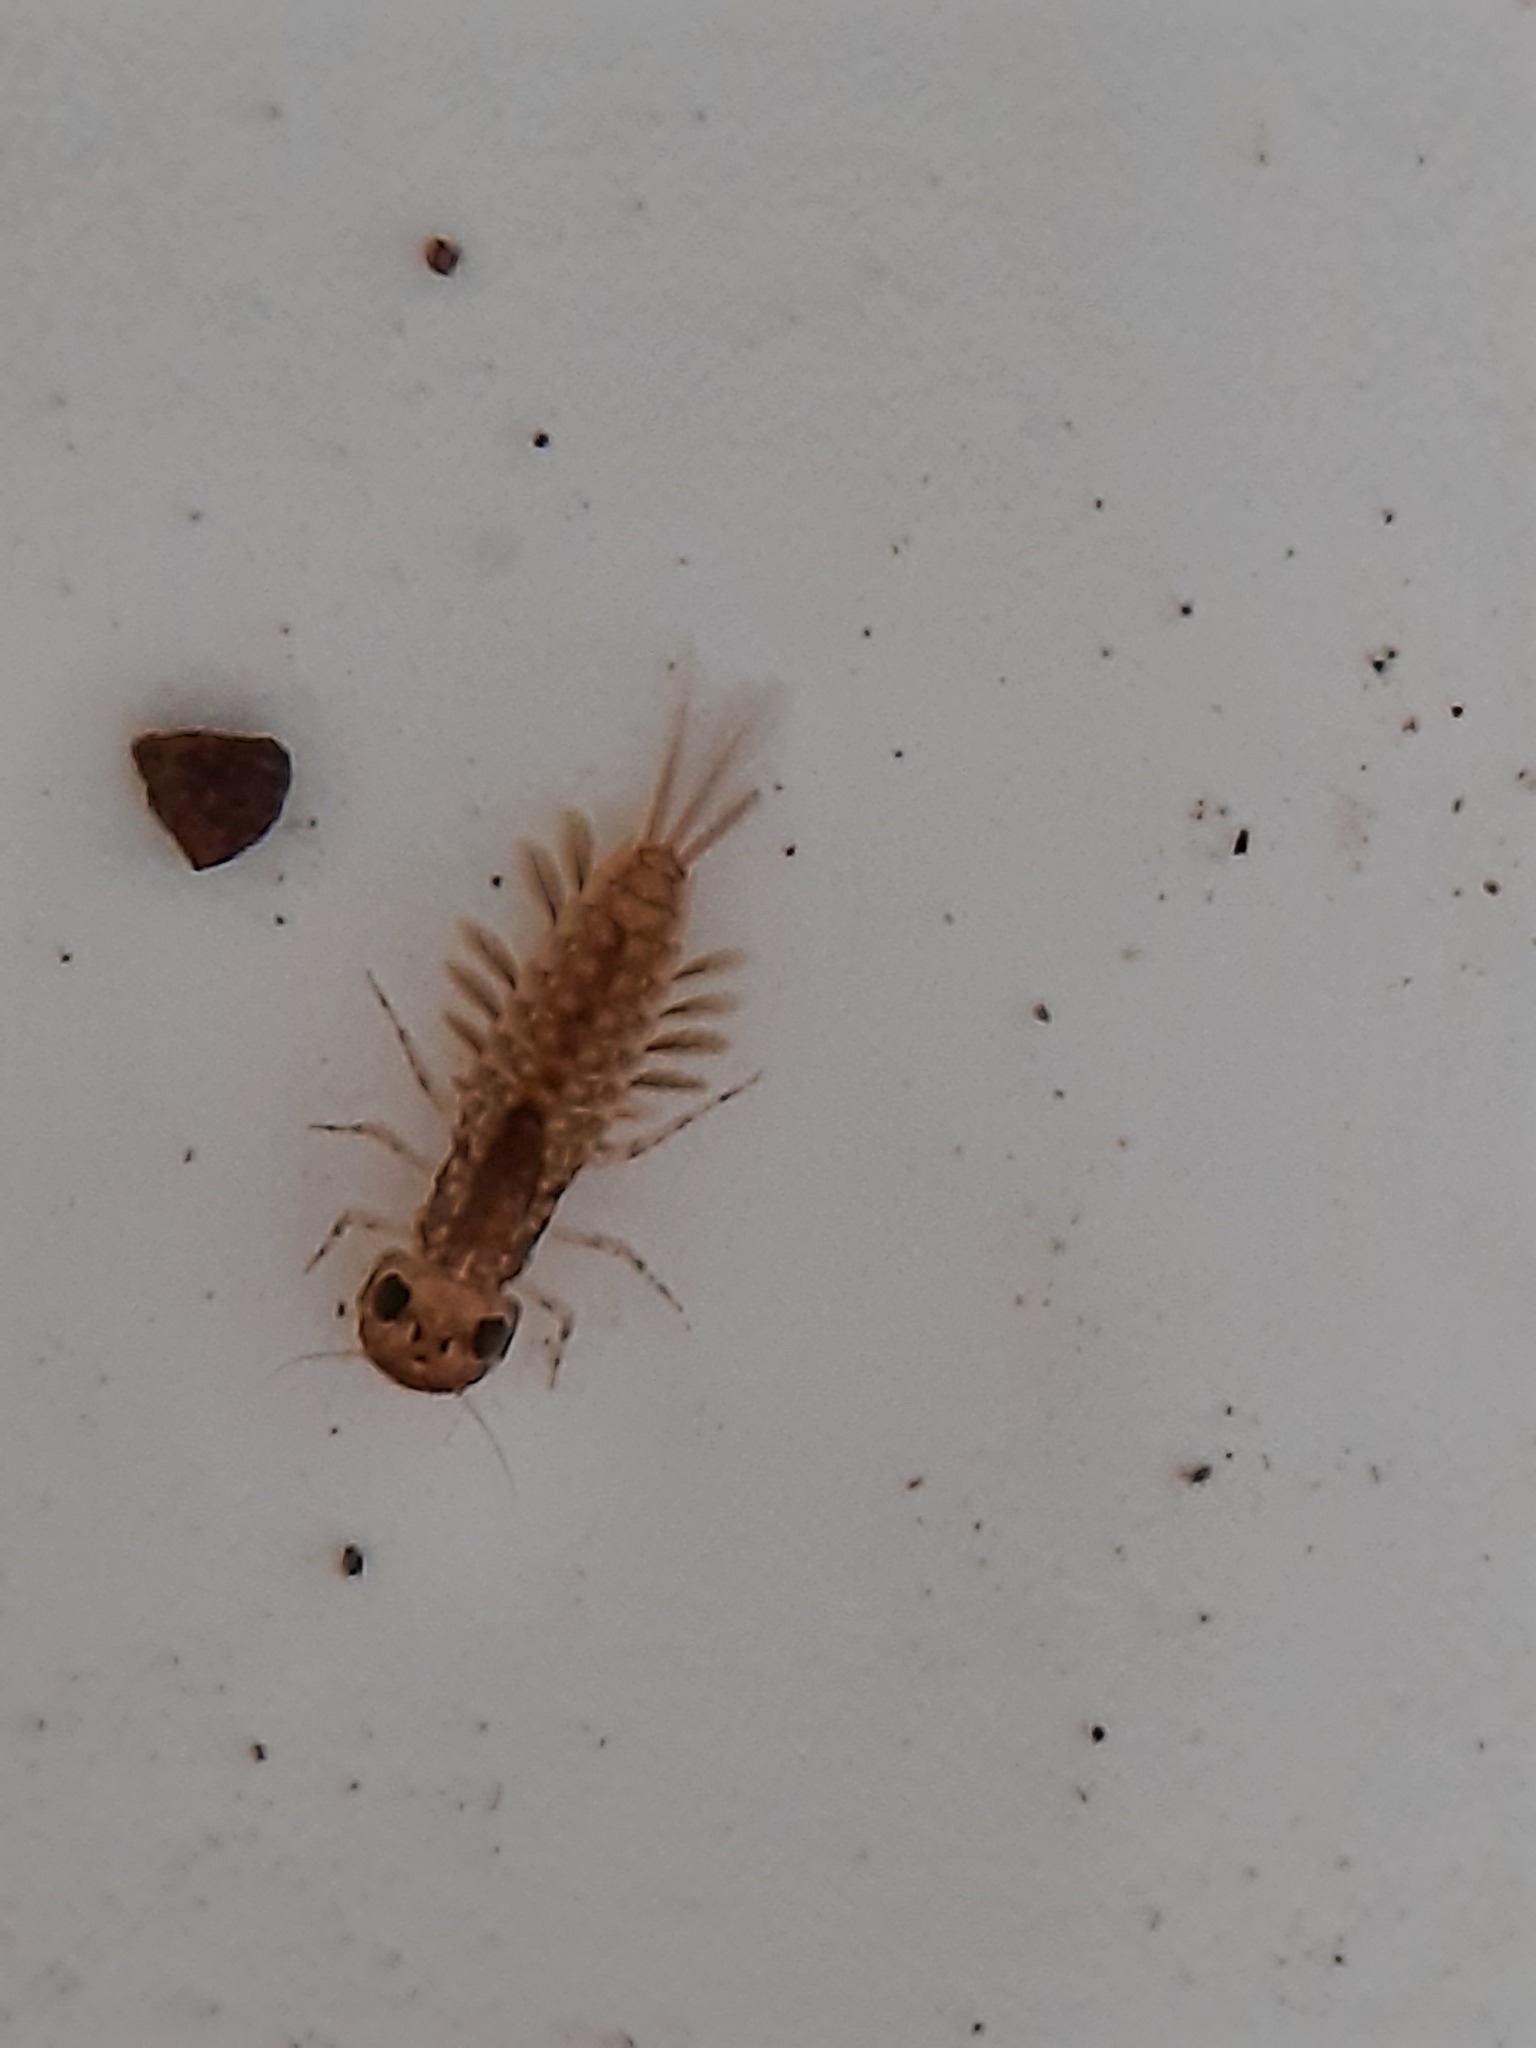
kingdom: Animalia
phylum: Arthropoda
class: Insecta
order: Ephemeroptera
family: Ameletopsidae
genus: Ameletopsis
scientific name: Ameletopsis perscitus
